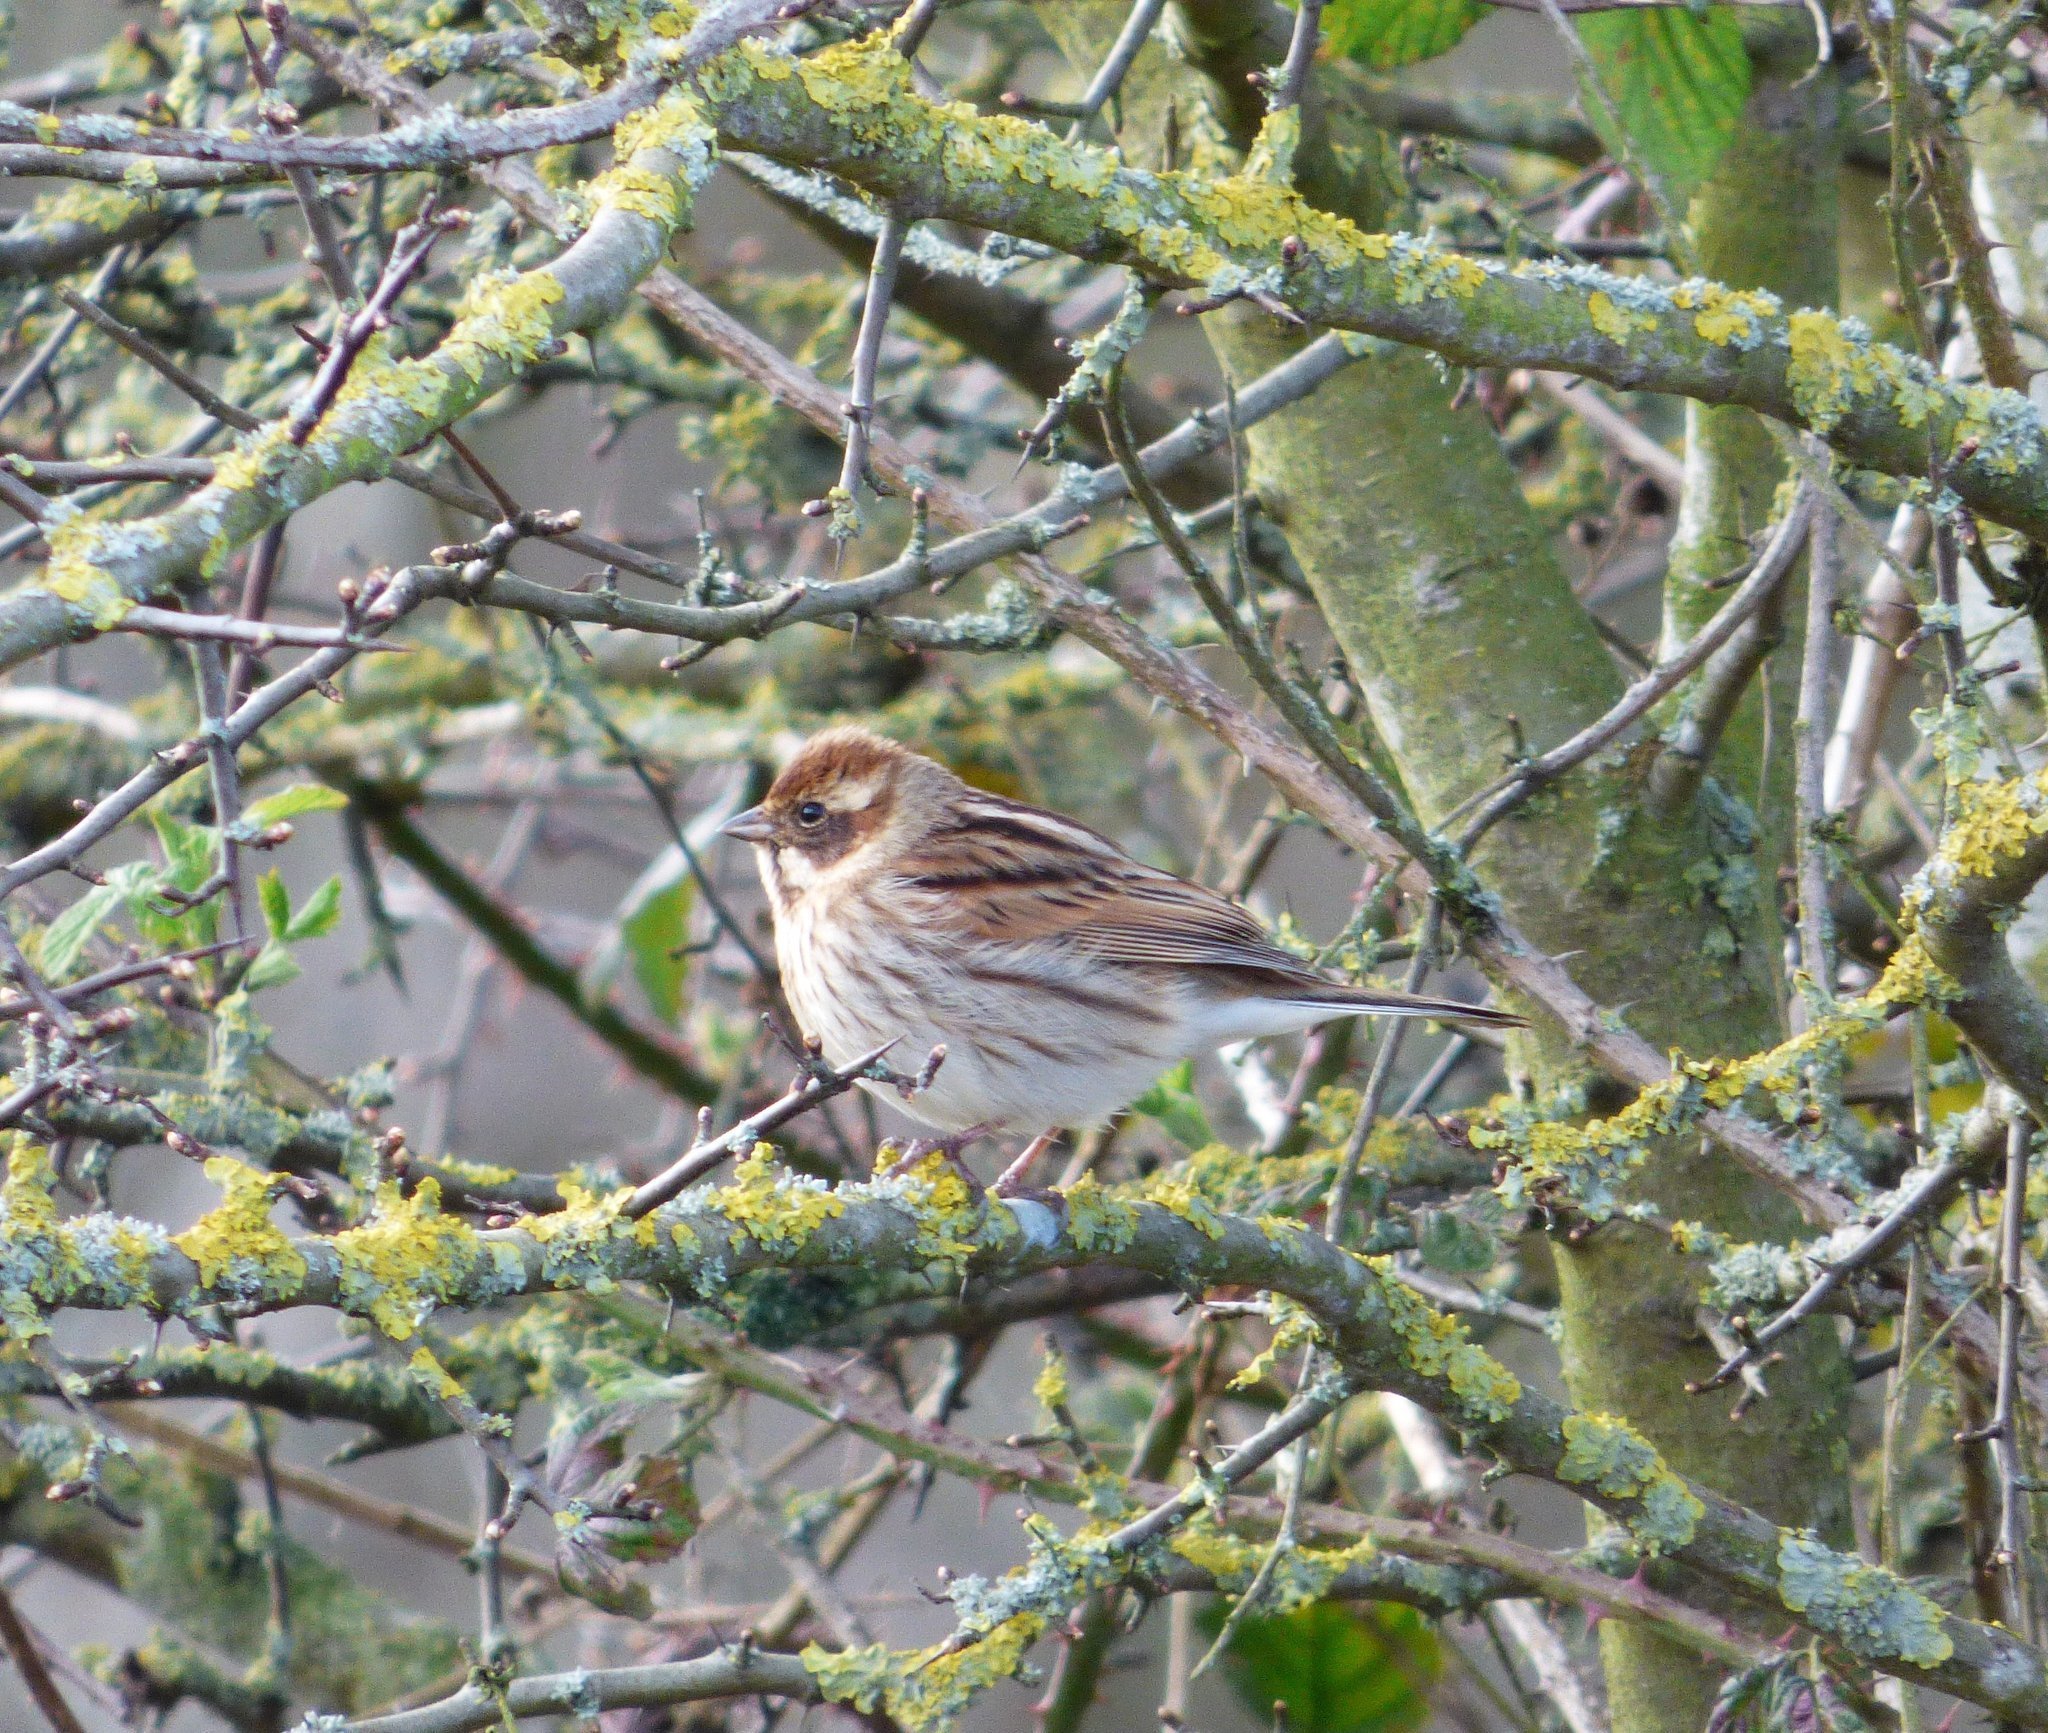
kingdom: Animalia
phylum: Chordata
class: Aves
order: Passeriformes
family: Emberizidae
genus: Emberiza
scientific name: Emberiza schoeniclus
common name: Reed bunting
